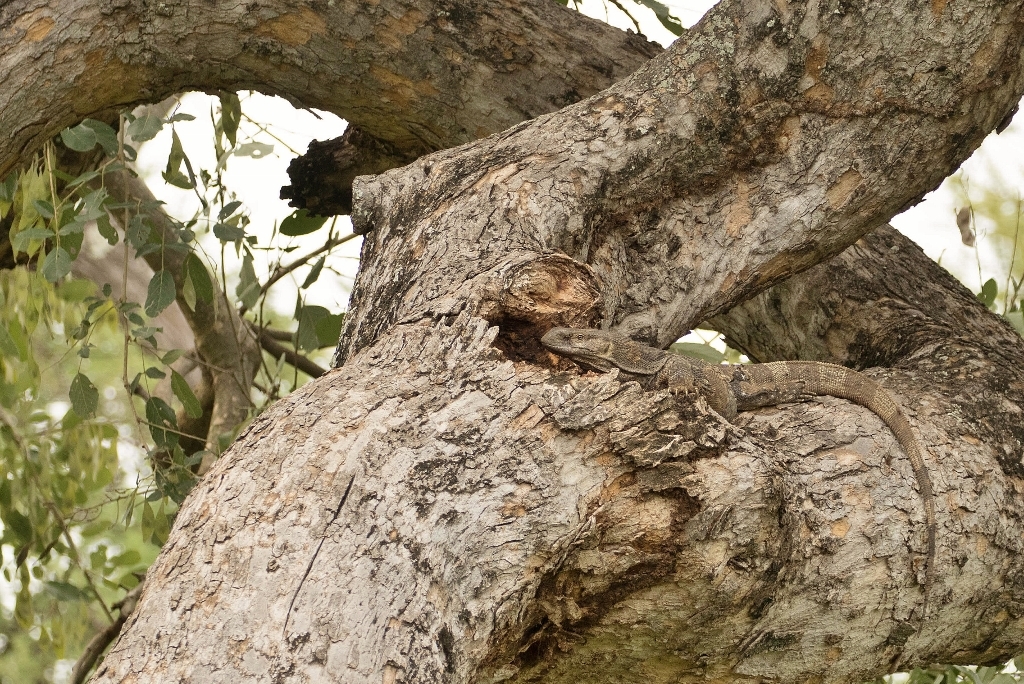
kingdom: Animalia
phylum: Chordata
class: Squamata
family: Varanidae
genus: Varanus
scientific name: Varanus albigularis
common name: White-throated monitor
